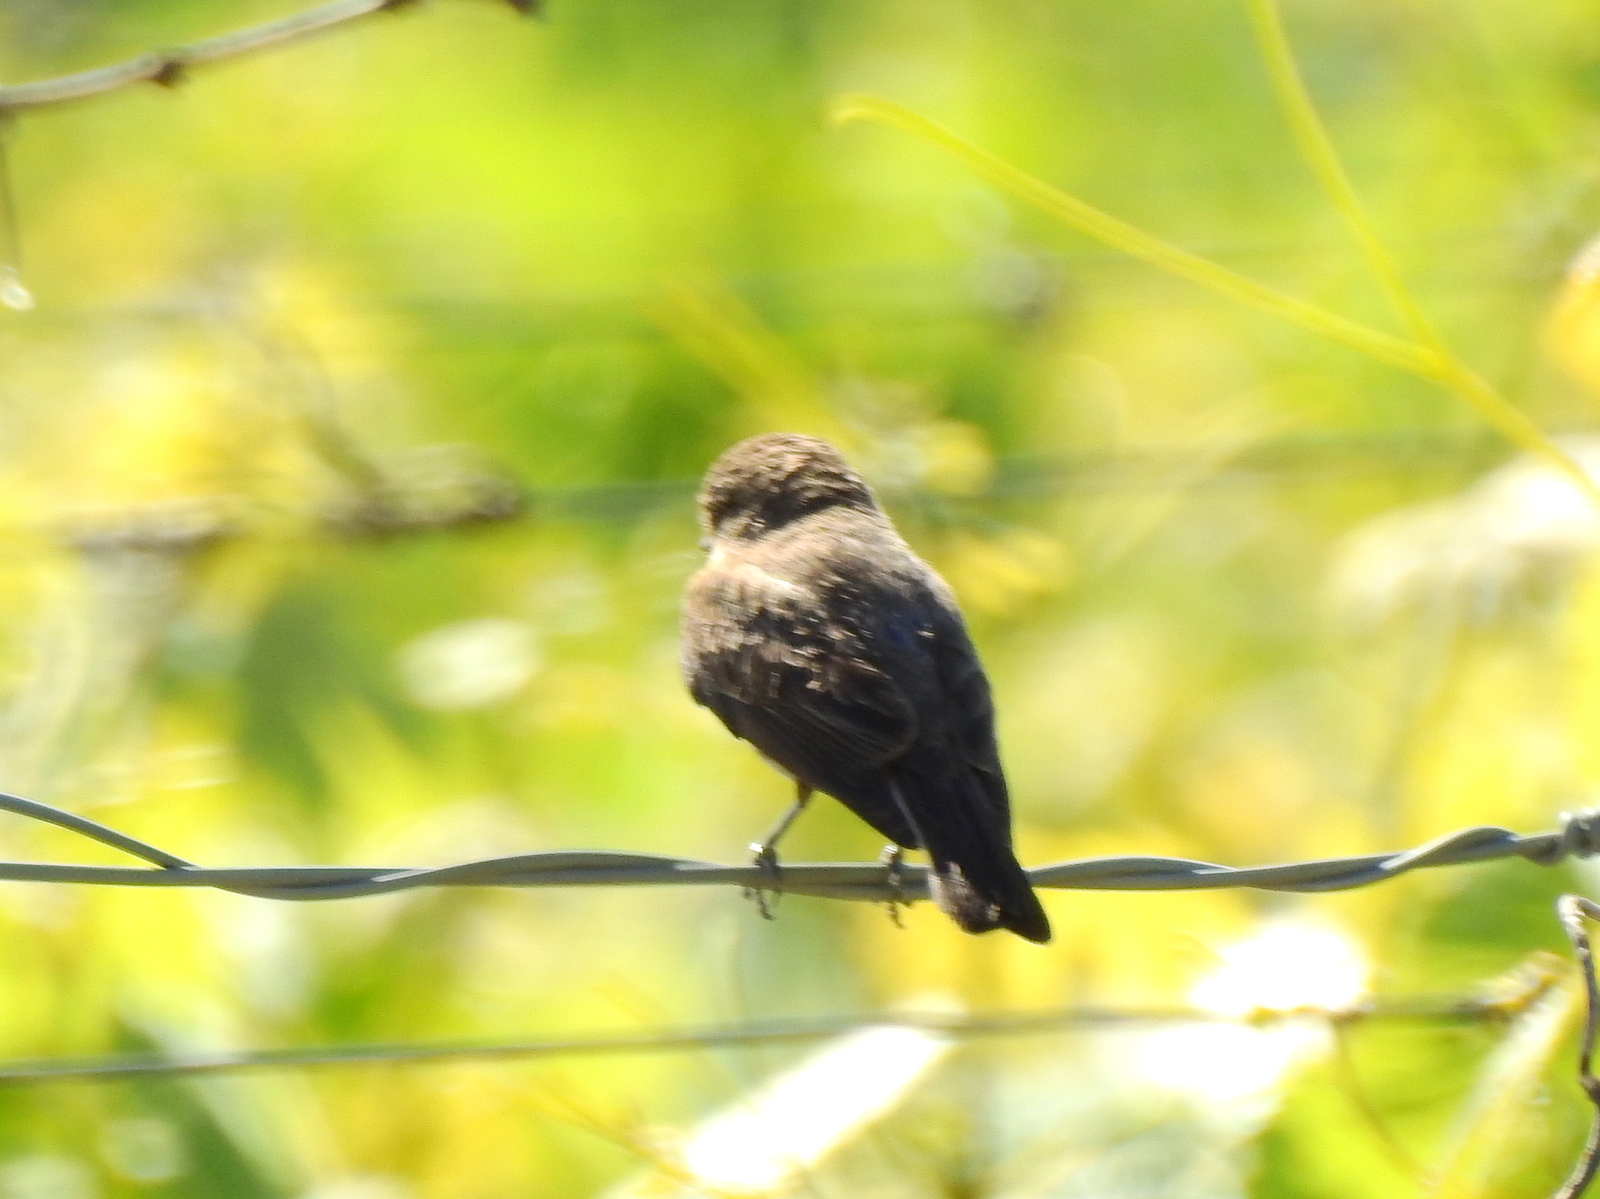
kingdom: Animalia
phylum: Chordata
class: Aves
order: Passeriformes
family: Tyrannidae
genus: Pyrocephalus
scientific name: Pyrocephalus rubinus
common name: Vermilion flycatcher
